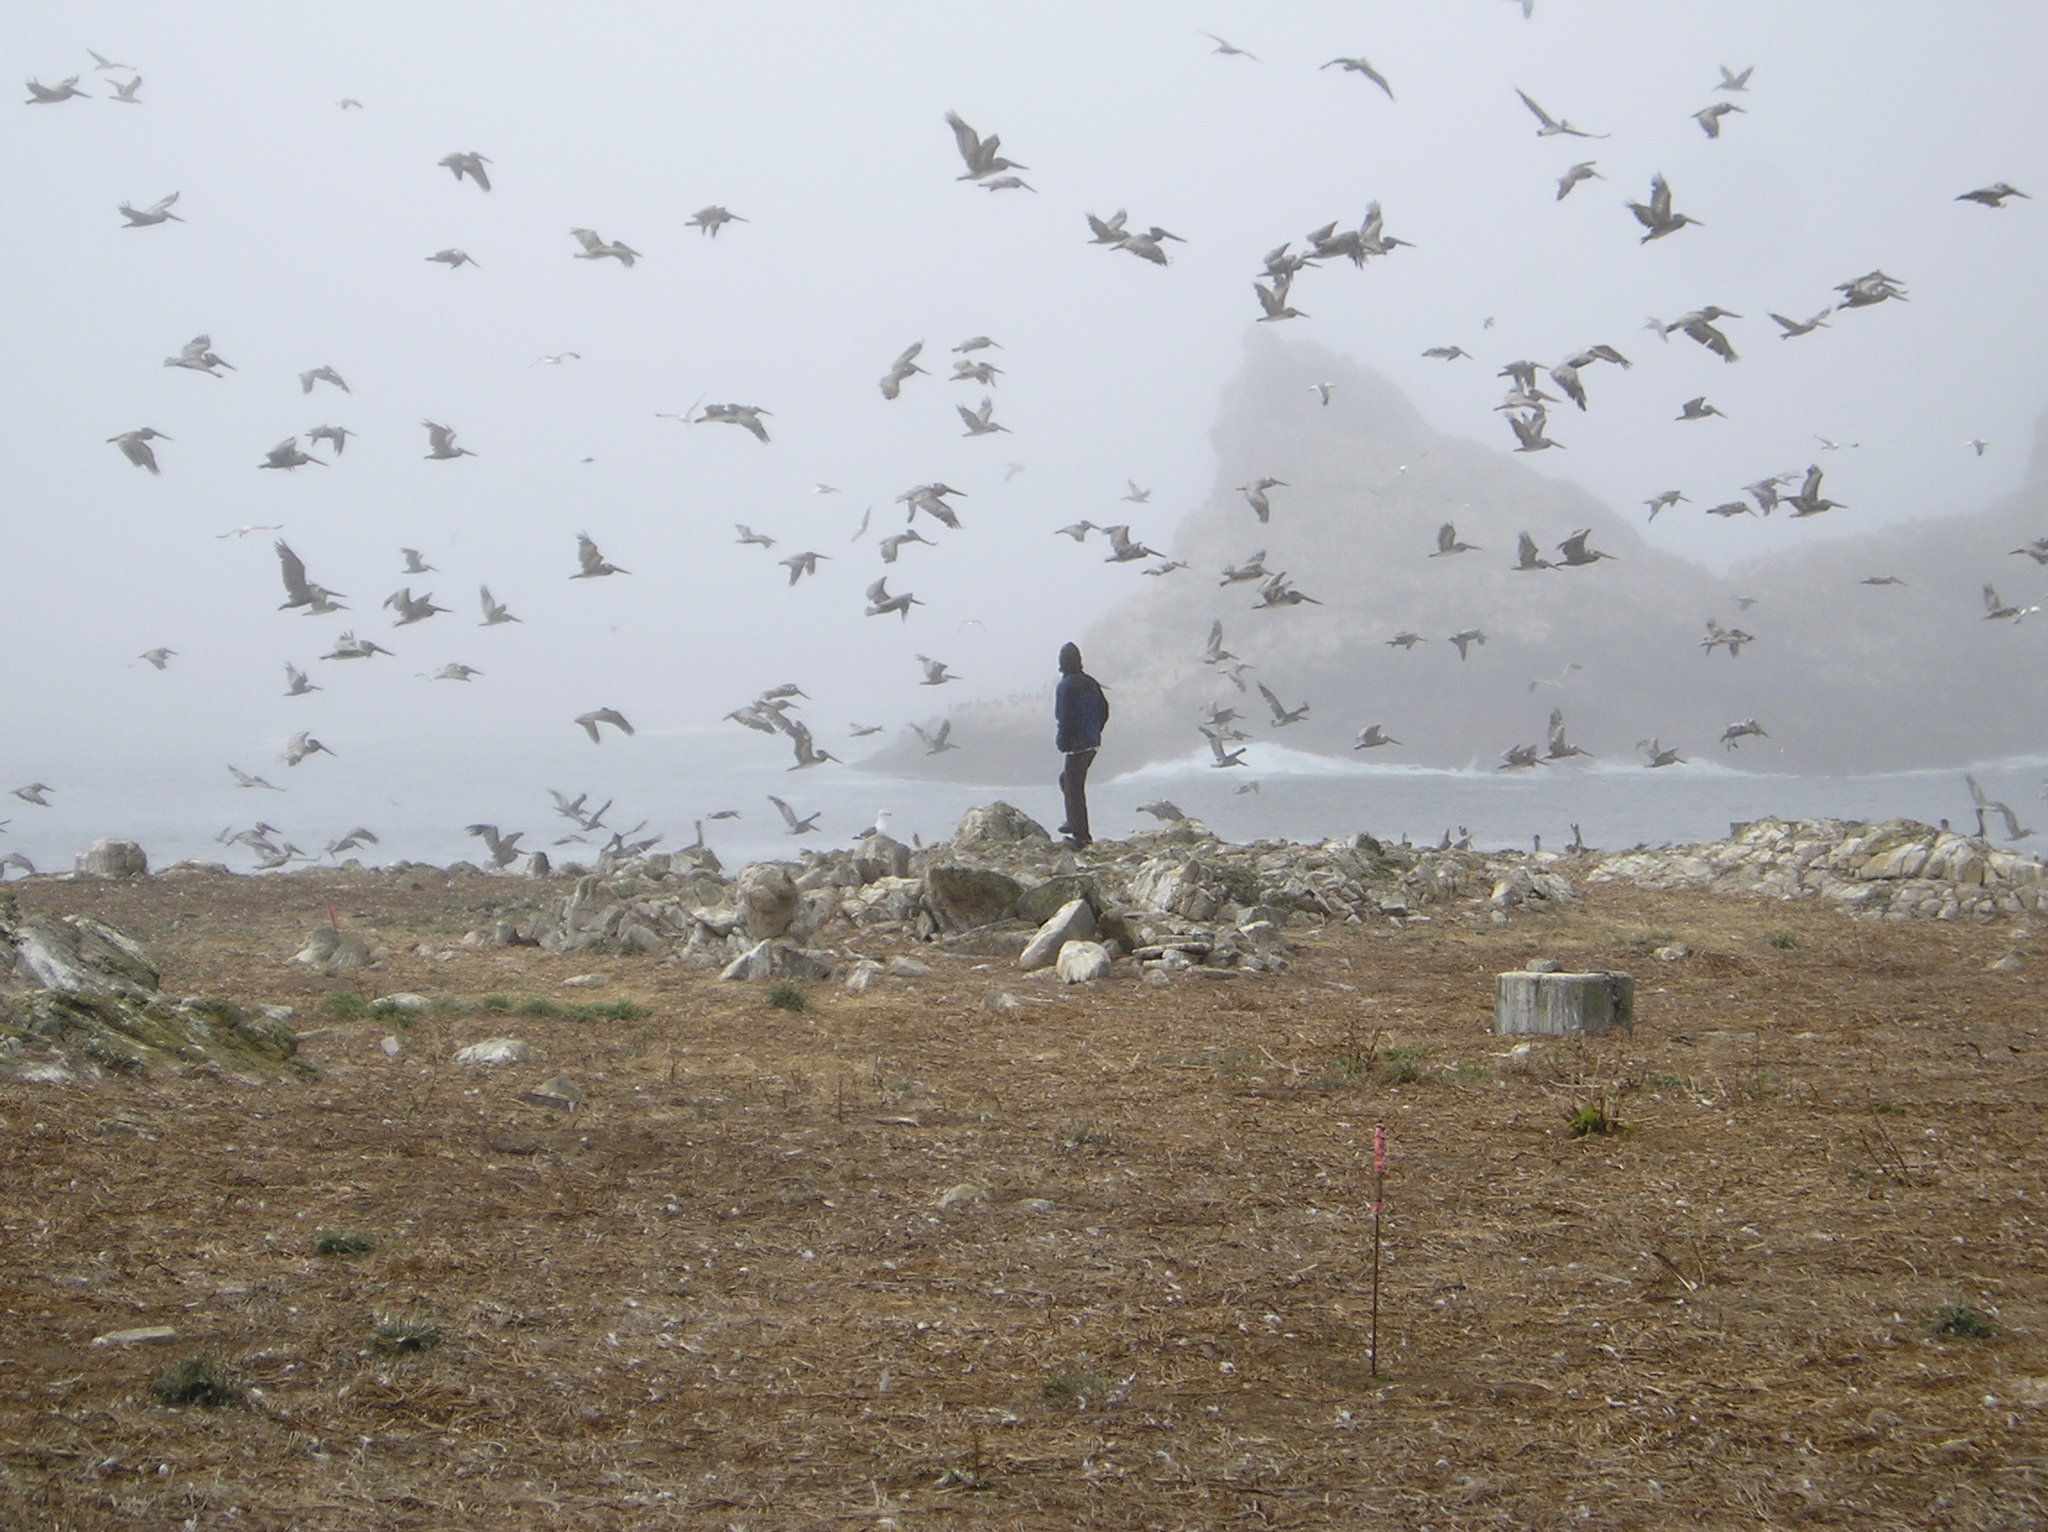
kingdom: Animalia
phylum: Chordata
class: Aves
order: Pelecaniformes
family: Pelecanidae
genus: Pelecanus
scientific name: Pelecanus occidentalis
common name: Brown pelican
